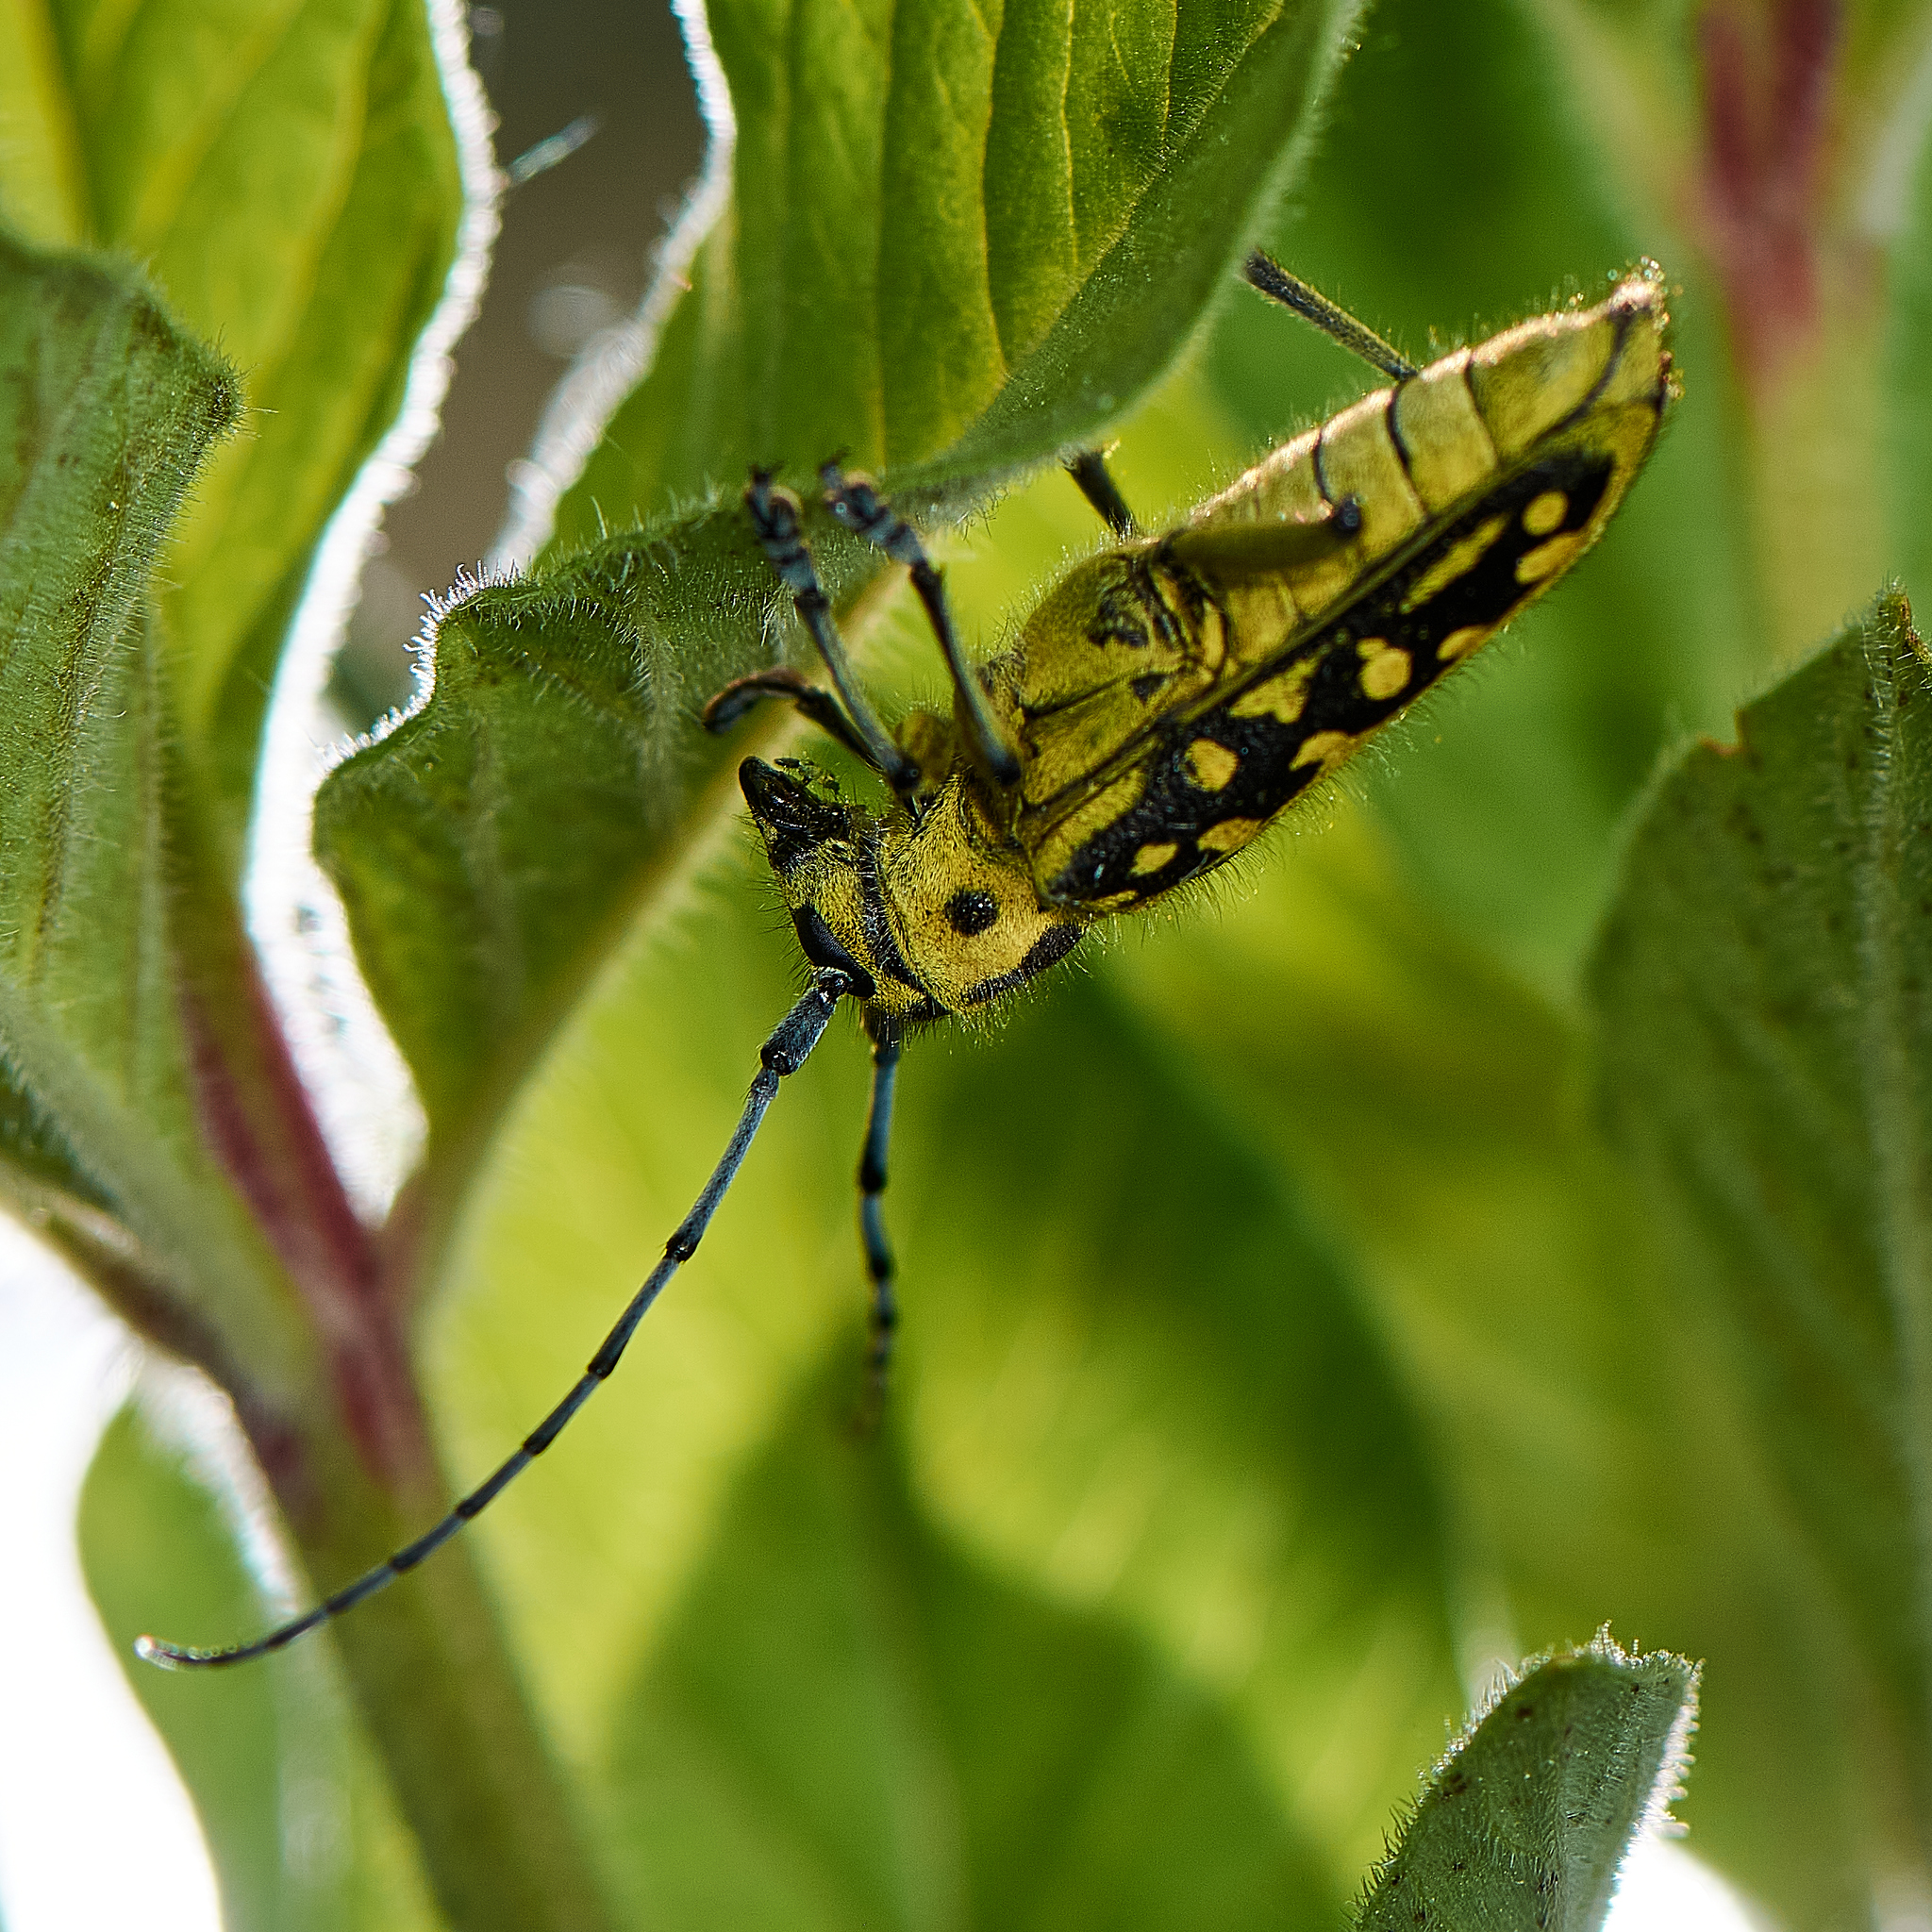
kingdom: Animalia
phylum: Arthropoda
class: Insecta
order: Coleoptera
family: Cerambycidae
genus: Saperda
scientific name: Saperda scalaris
